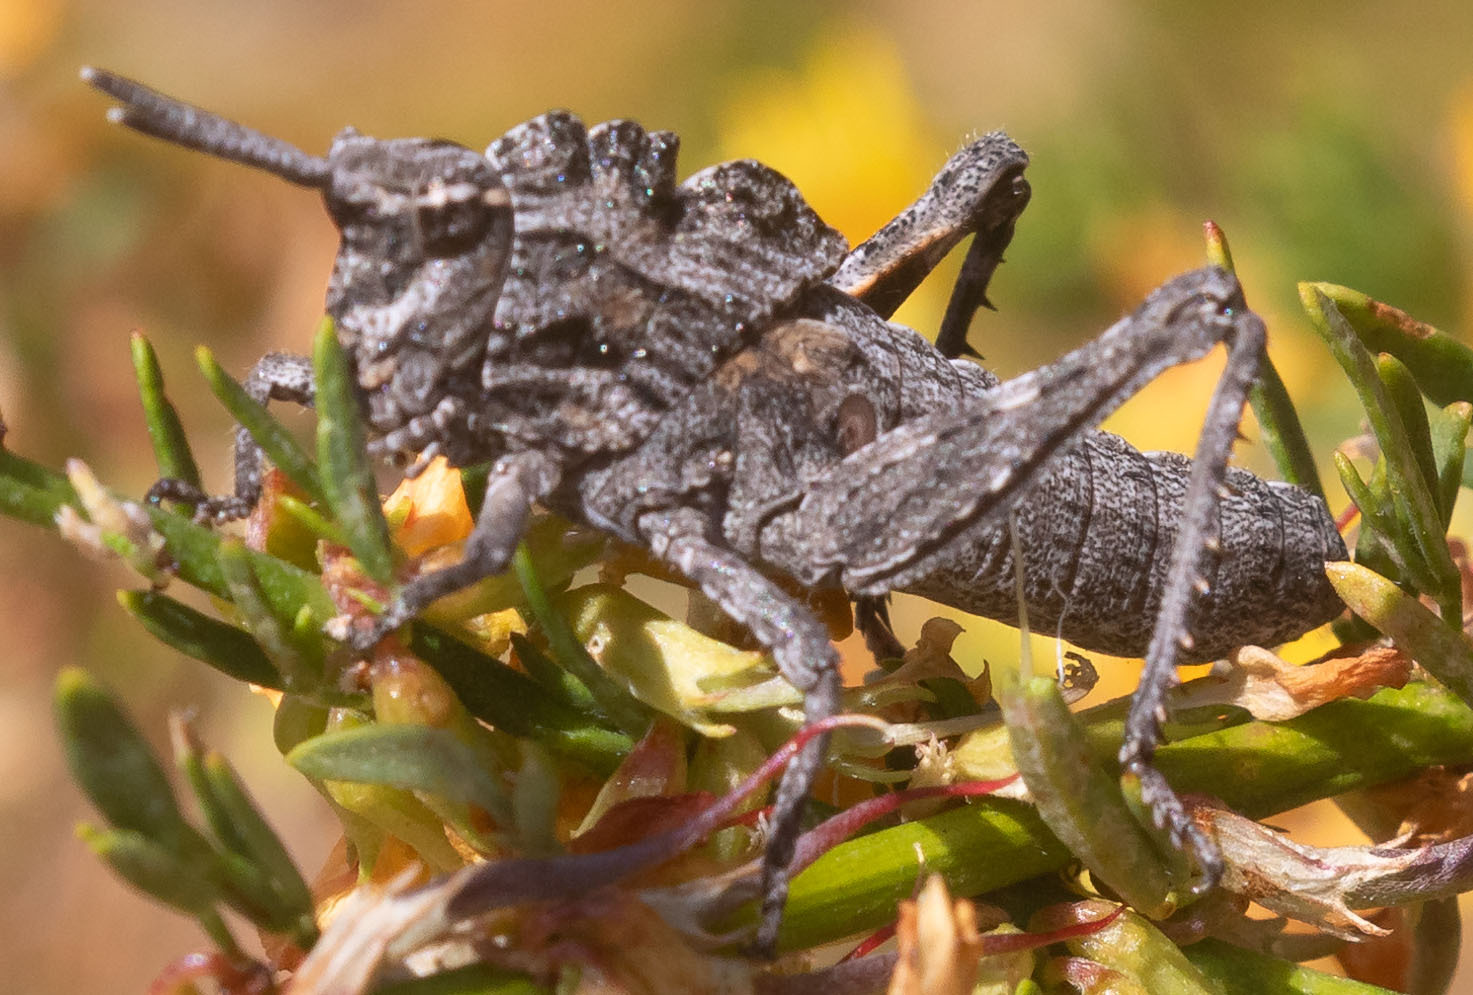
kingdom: Animalia
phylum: Arthropoda
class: Insecta
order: Orthoptera
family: Romaleidae
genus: Dracotettix
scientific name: Dracotettix monstrosus
